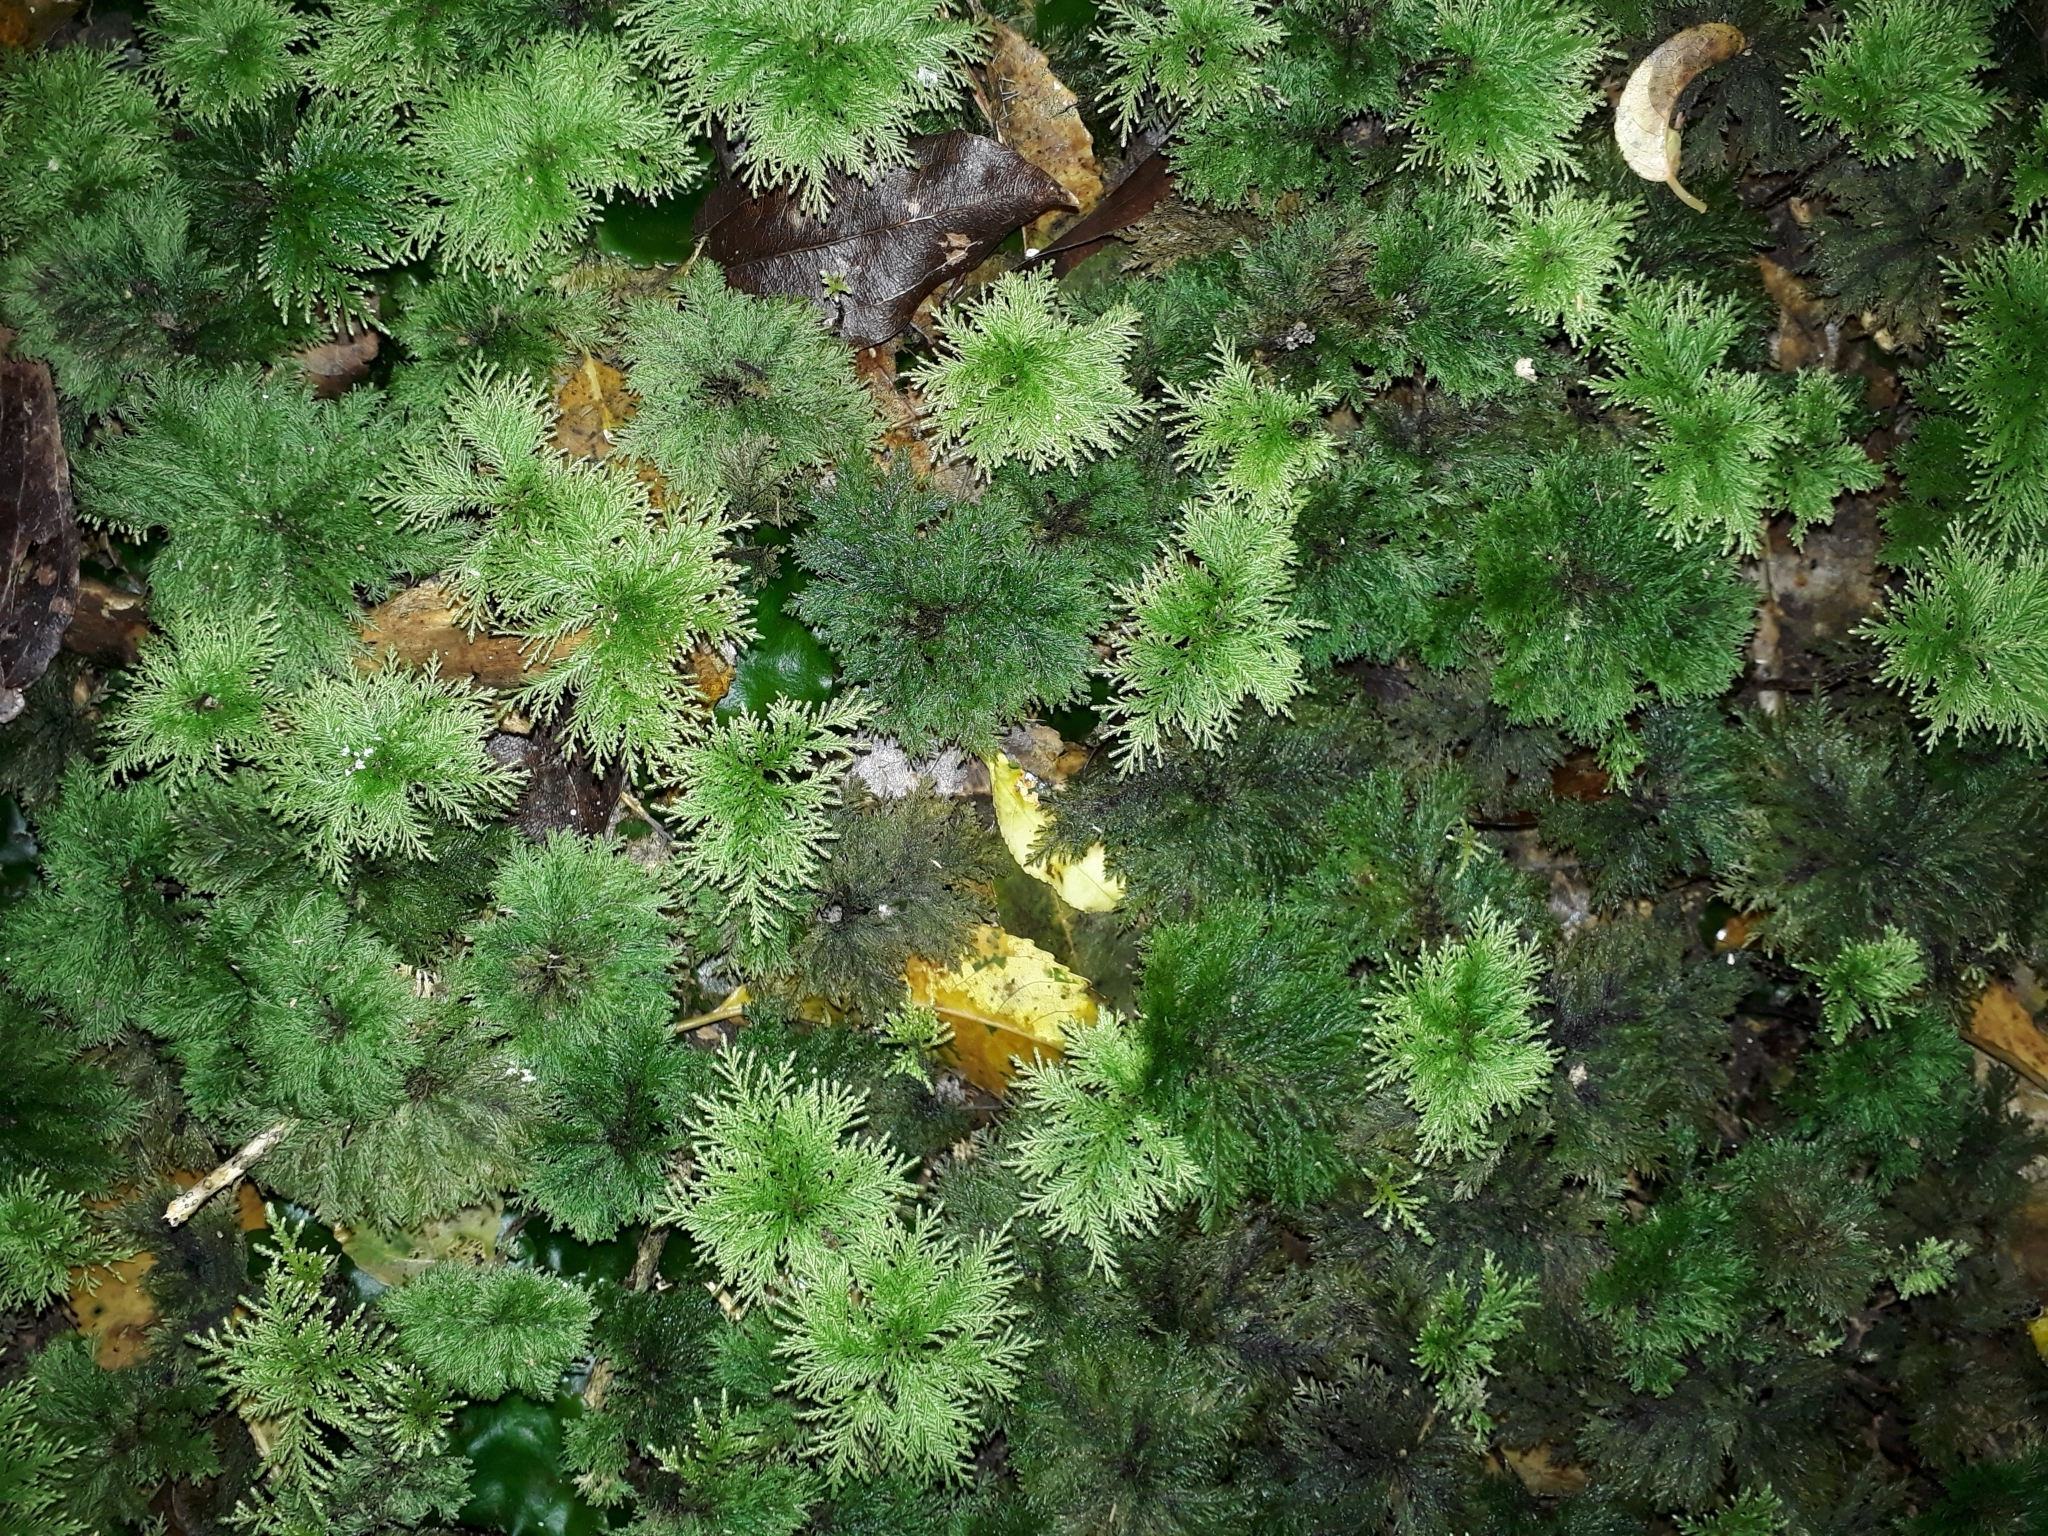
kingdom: Plantae
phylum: Bryophyta
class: Bryopsida
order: Hypopterygiales
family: Hypopterygiaceae
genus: Dendrohypopterygium
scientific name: Dendrohypopterygium filiculiforme
